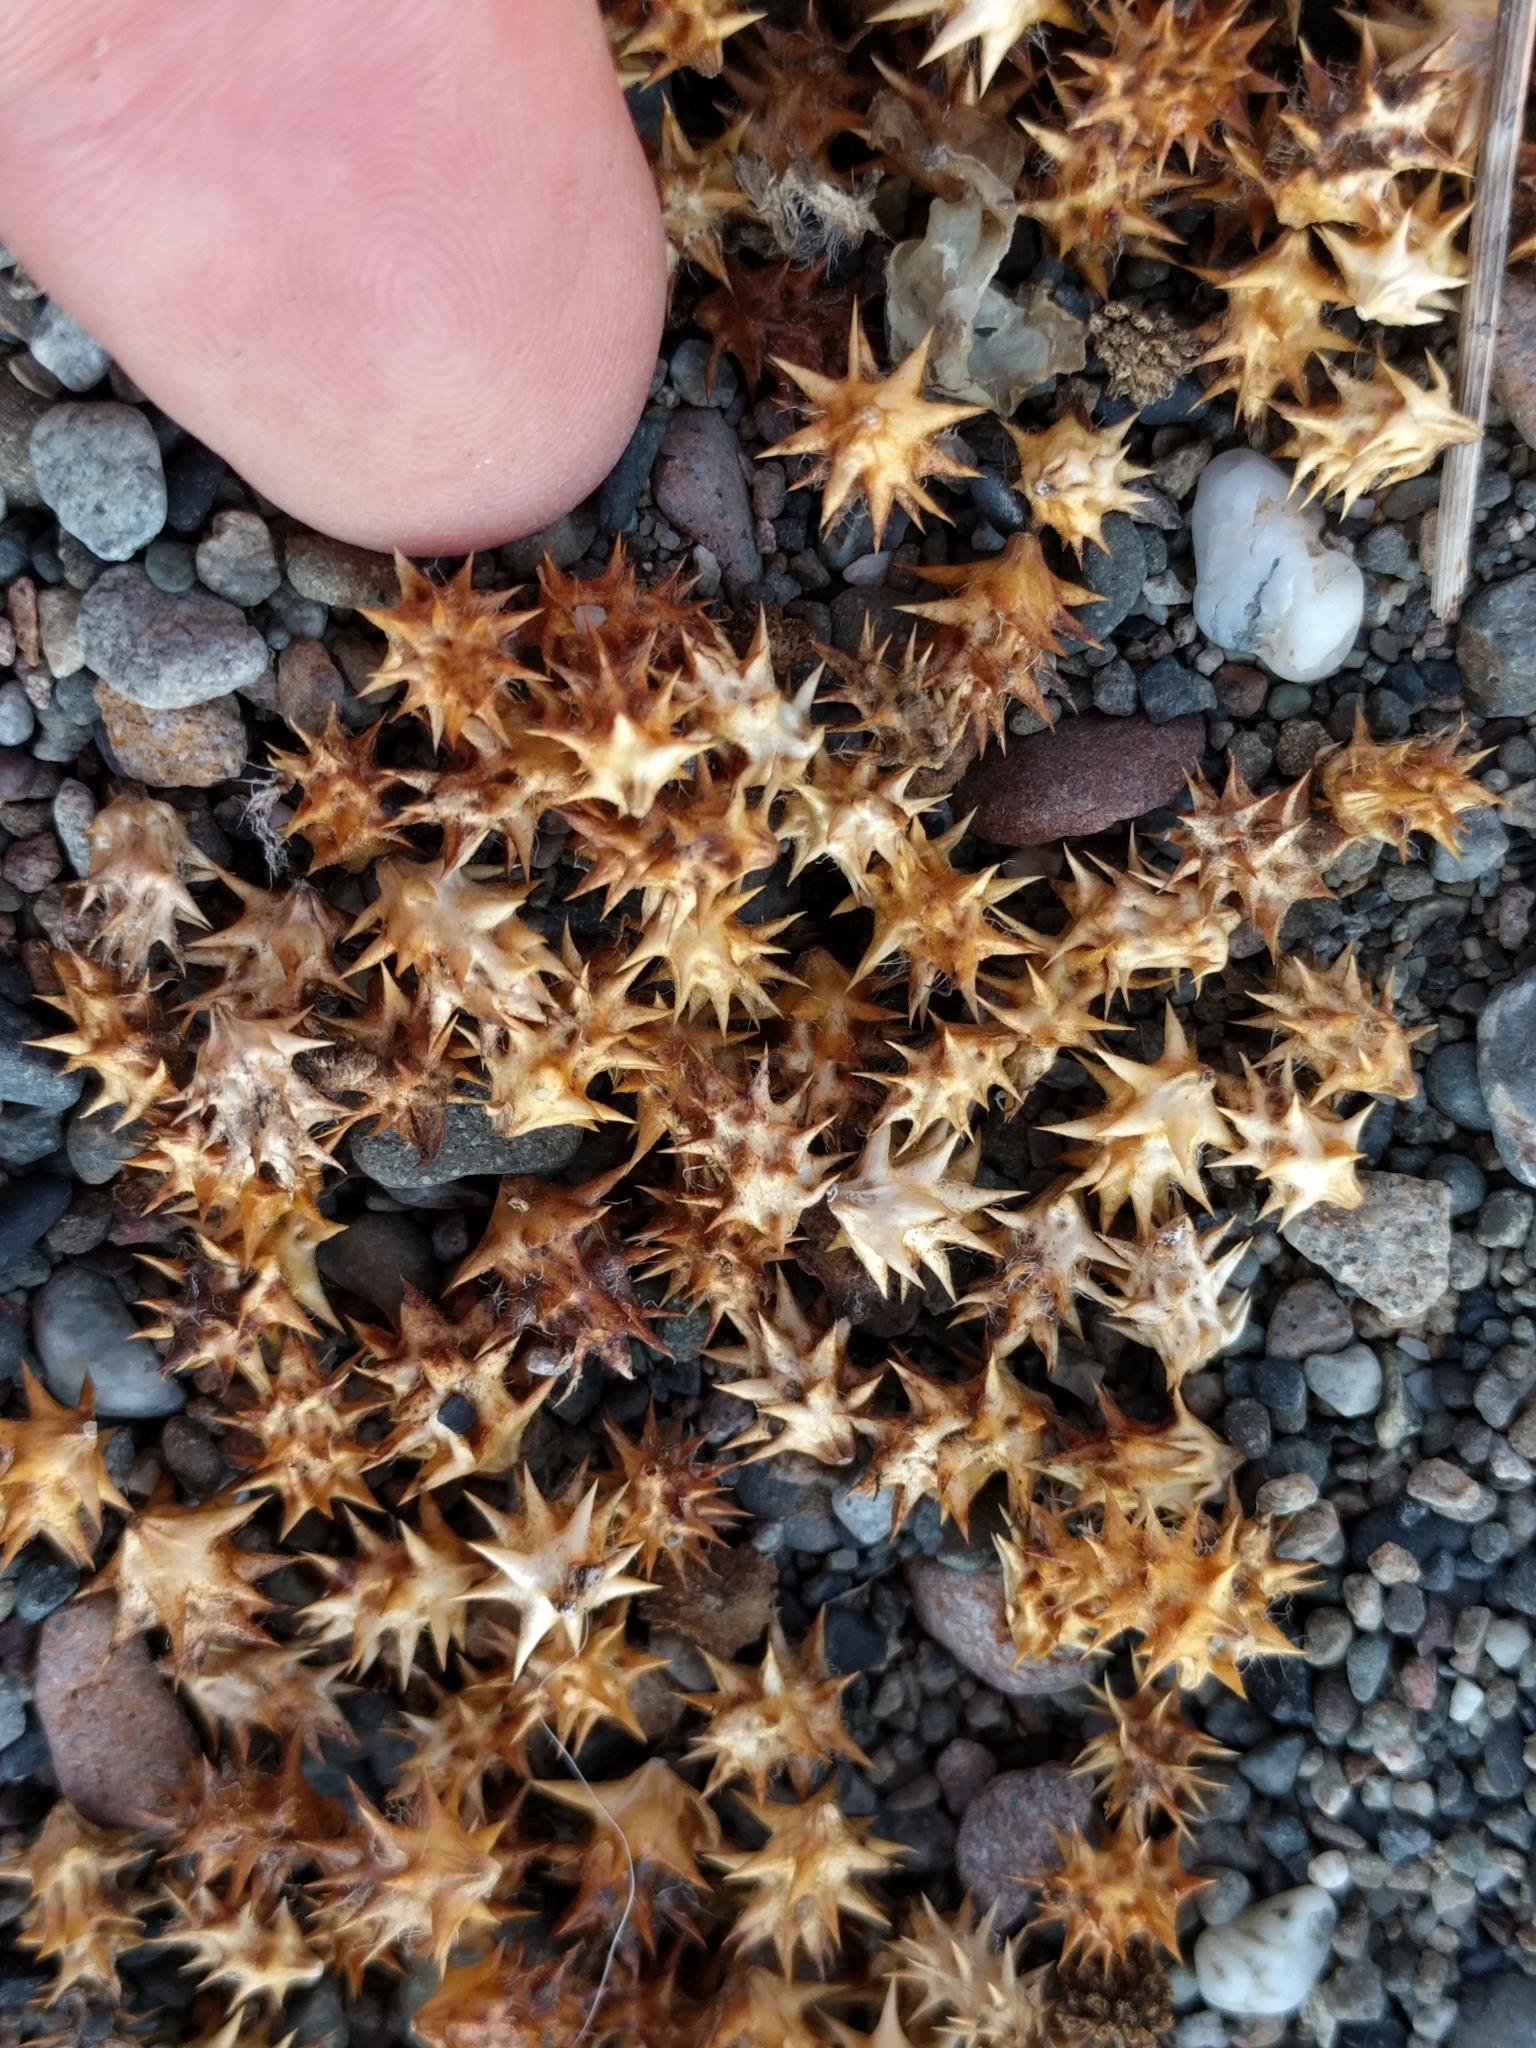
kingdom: Plantae
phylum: Tracheophyta
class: Magnoliopsida
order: Asterales
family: Asteraceae
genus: Ambrosia
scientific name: Ambrosia chamissonis
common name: Beachbur
